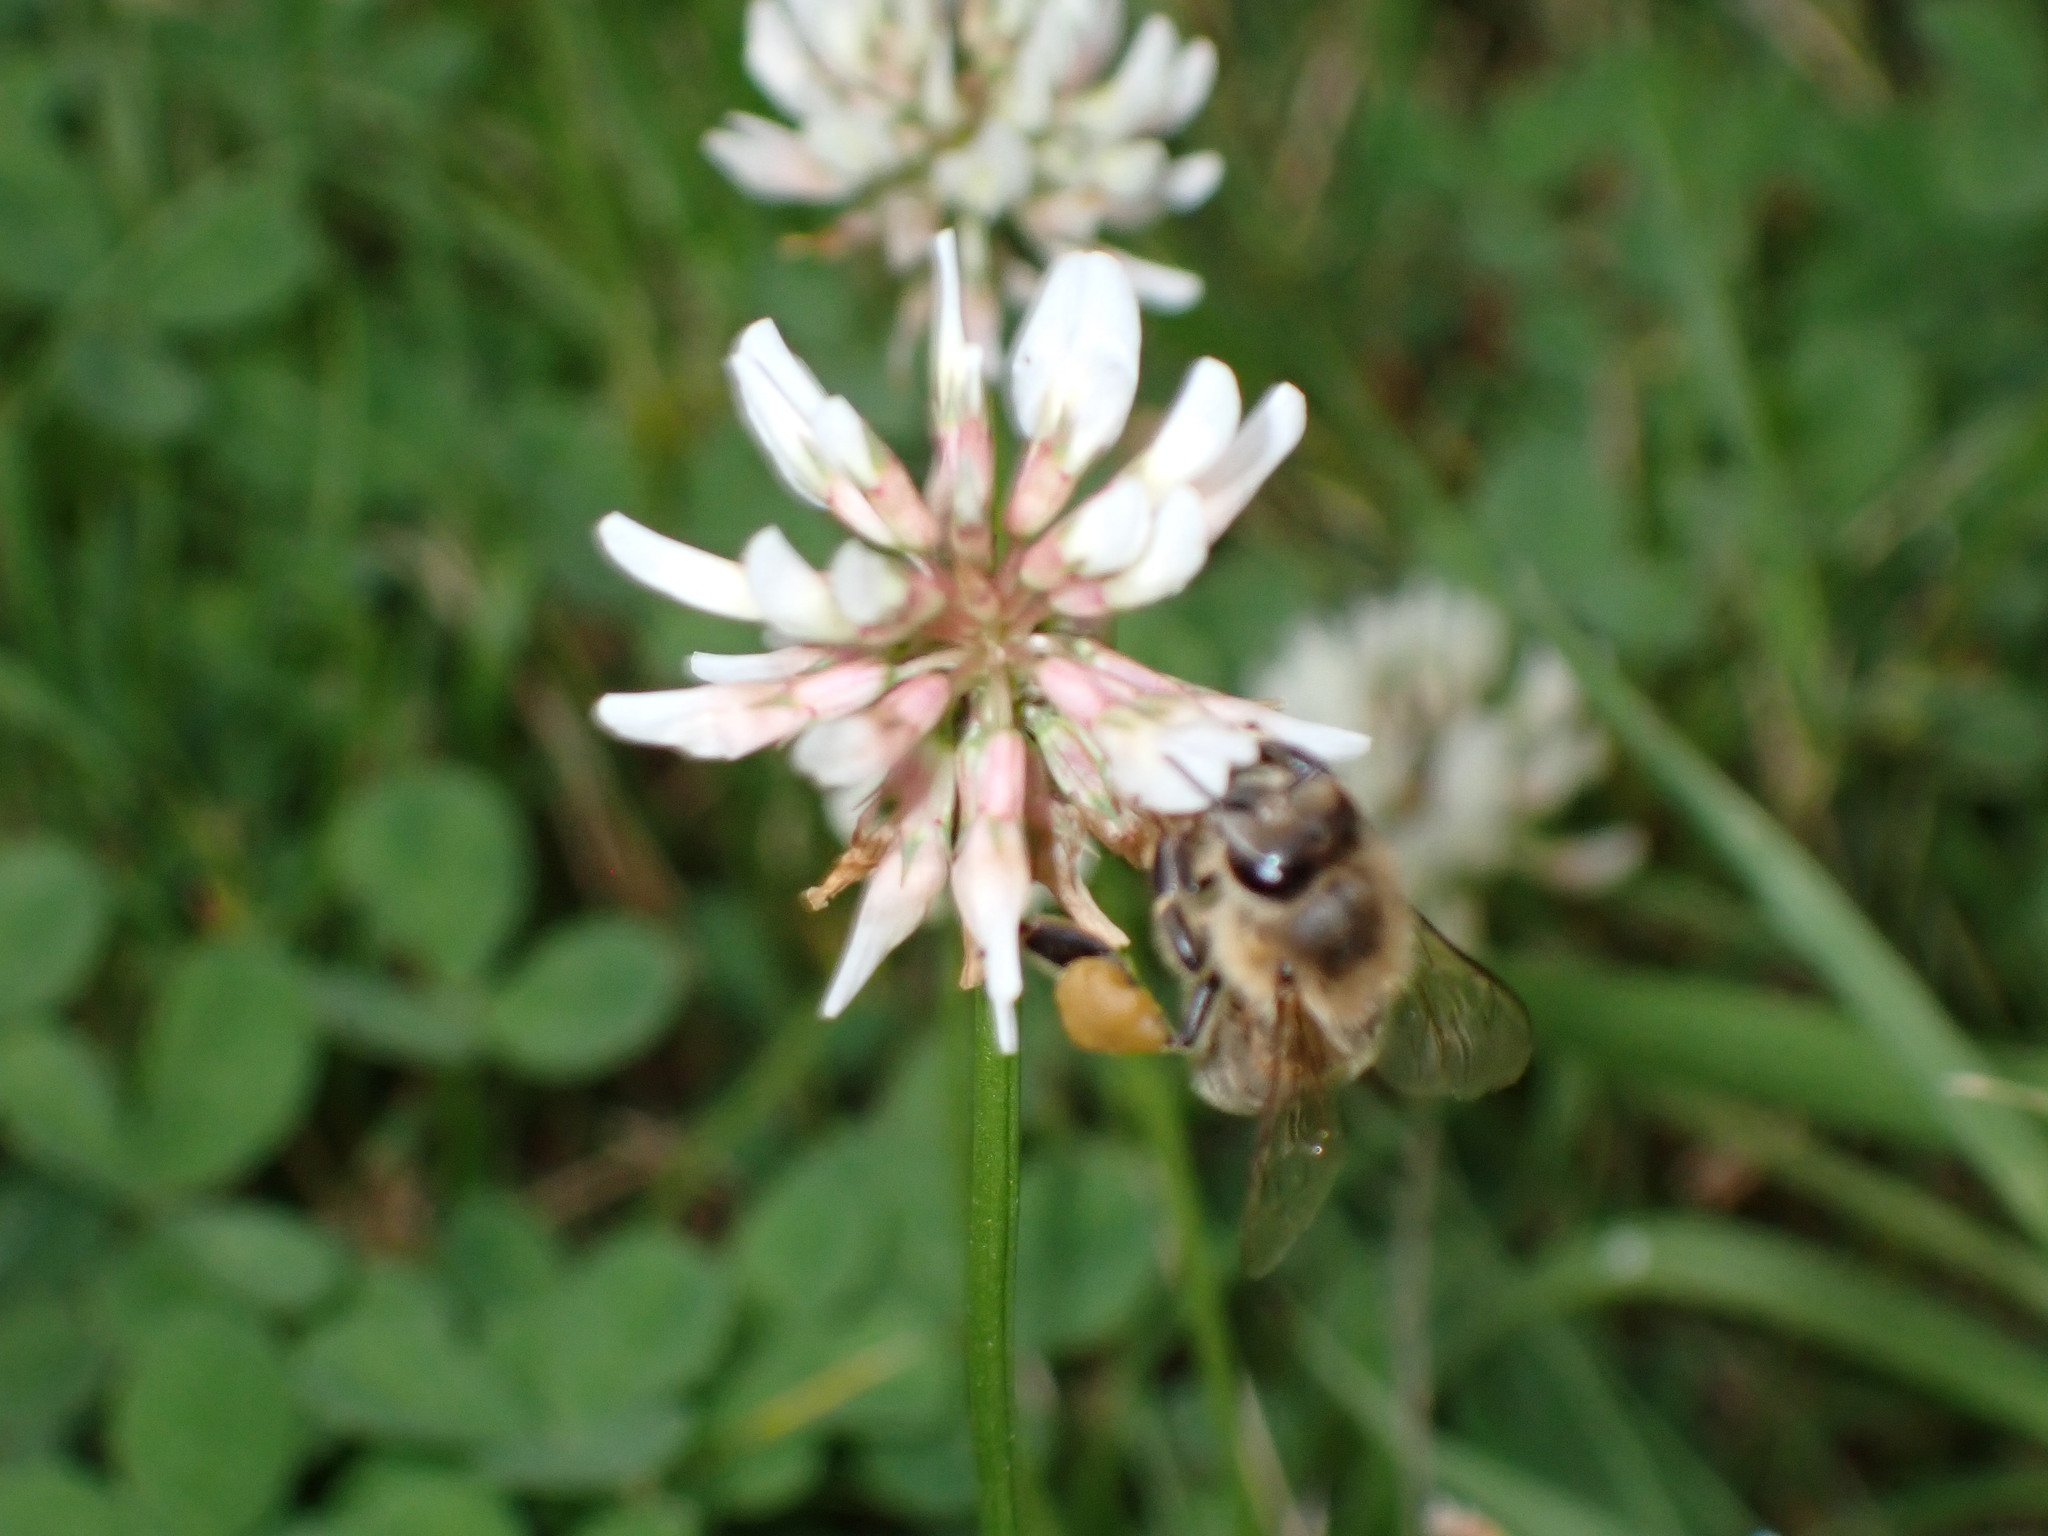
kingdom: Animalia
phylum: Arthropoda
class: Insecta
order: Hymenoptera
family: Apidae
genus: Apis
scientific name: Apis mellifera
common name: Honey bee
